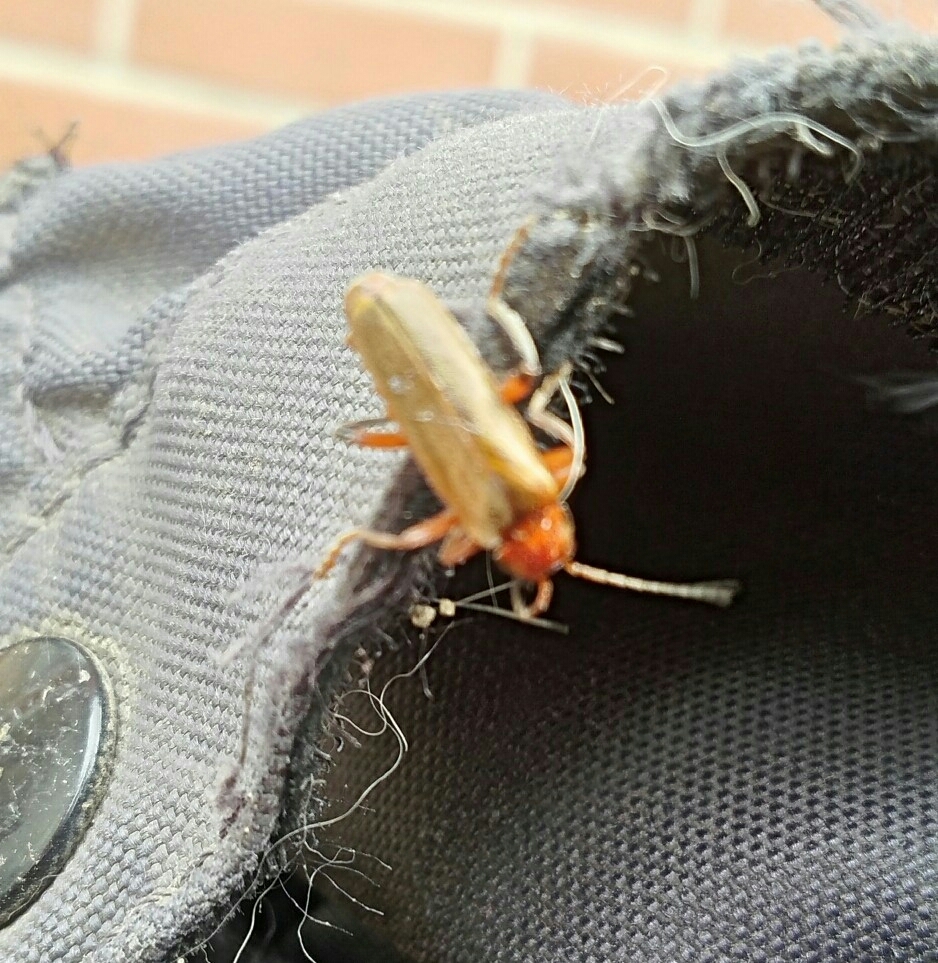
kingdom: Animalia
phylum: Arthropoda
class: Insecta
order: Coleoptera
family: Cantharidae
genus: Cantharis
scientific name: Cantharis livida
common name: Livid soldier beetle
